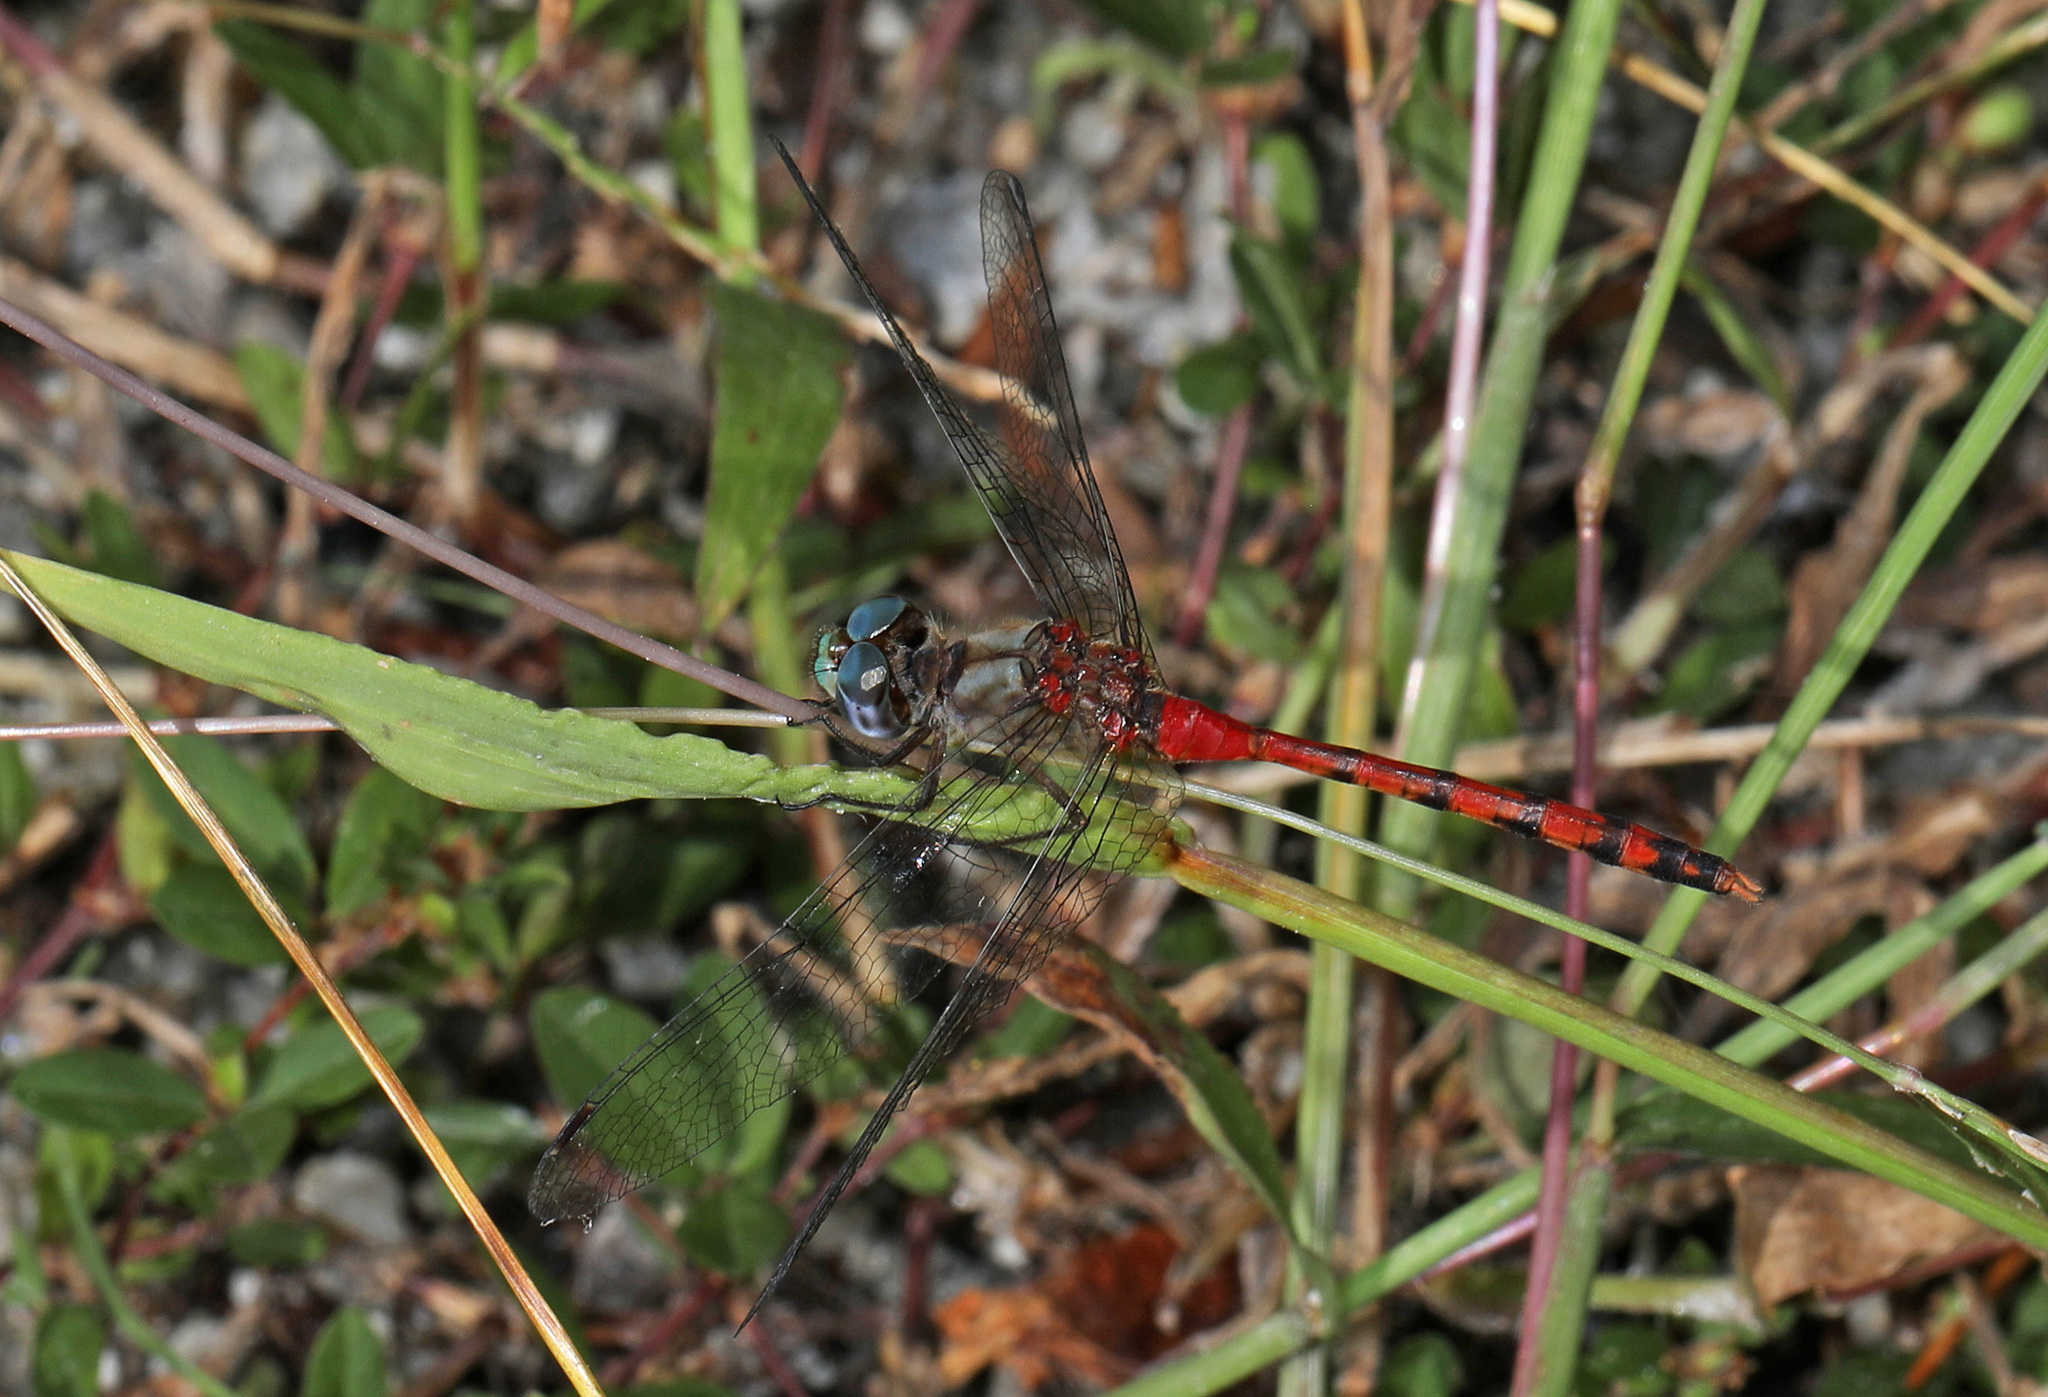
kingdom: Animalia
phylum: Arthropoda
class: Insecta
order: Odonata
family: Libellulidae
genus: Sympetrum
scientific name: Sympetrum ambiguum
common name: Blue-faced meadowhawk
